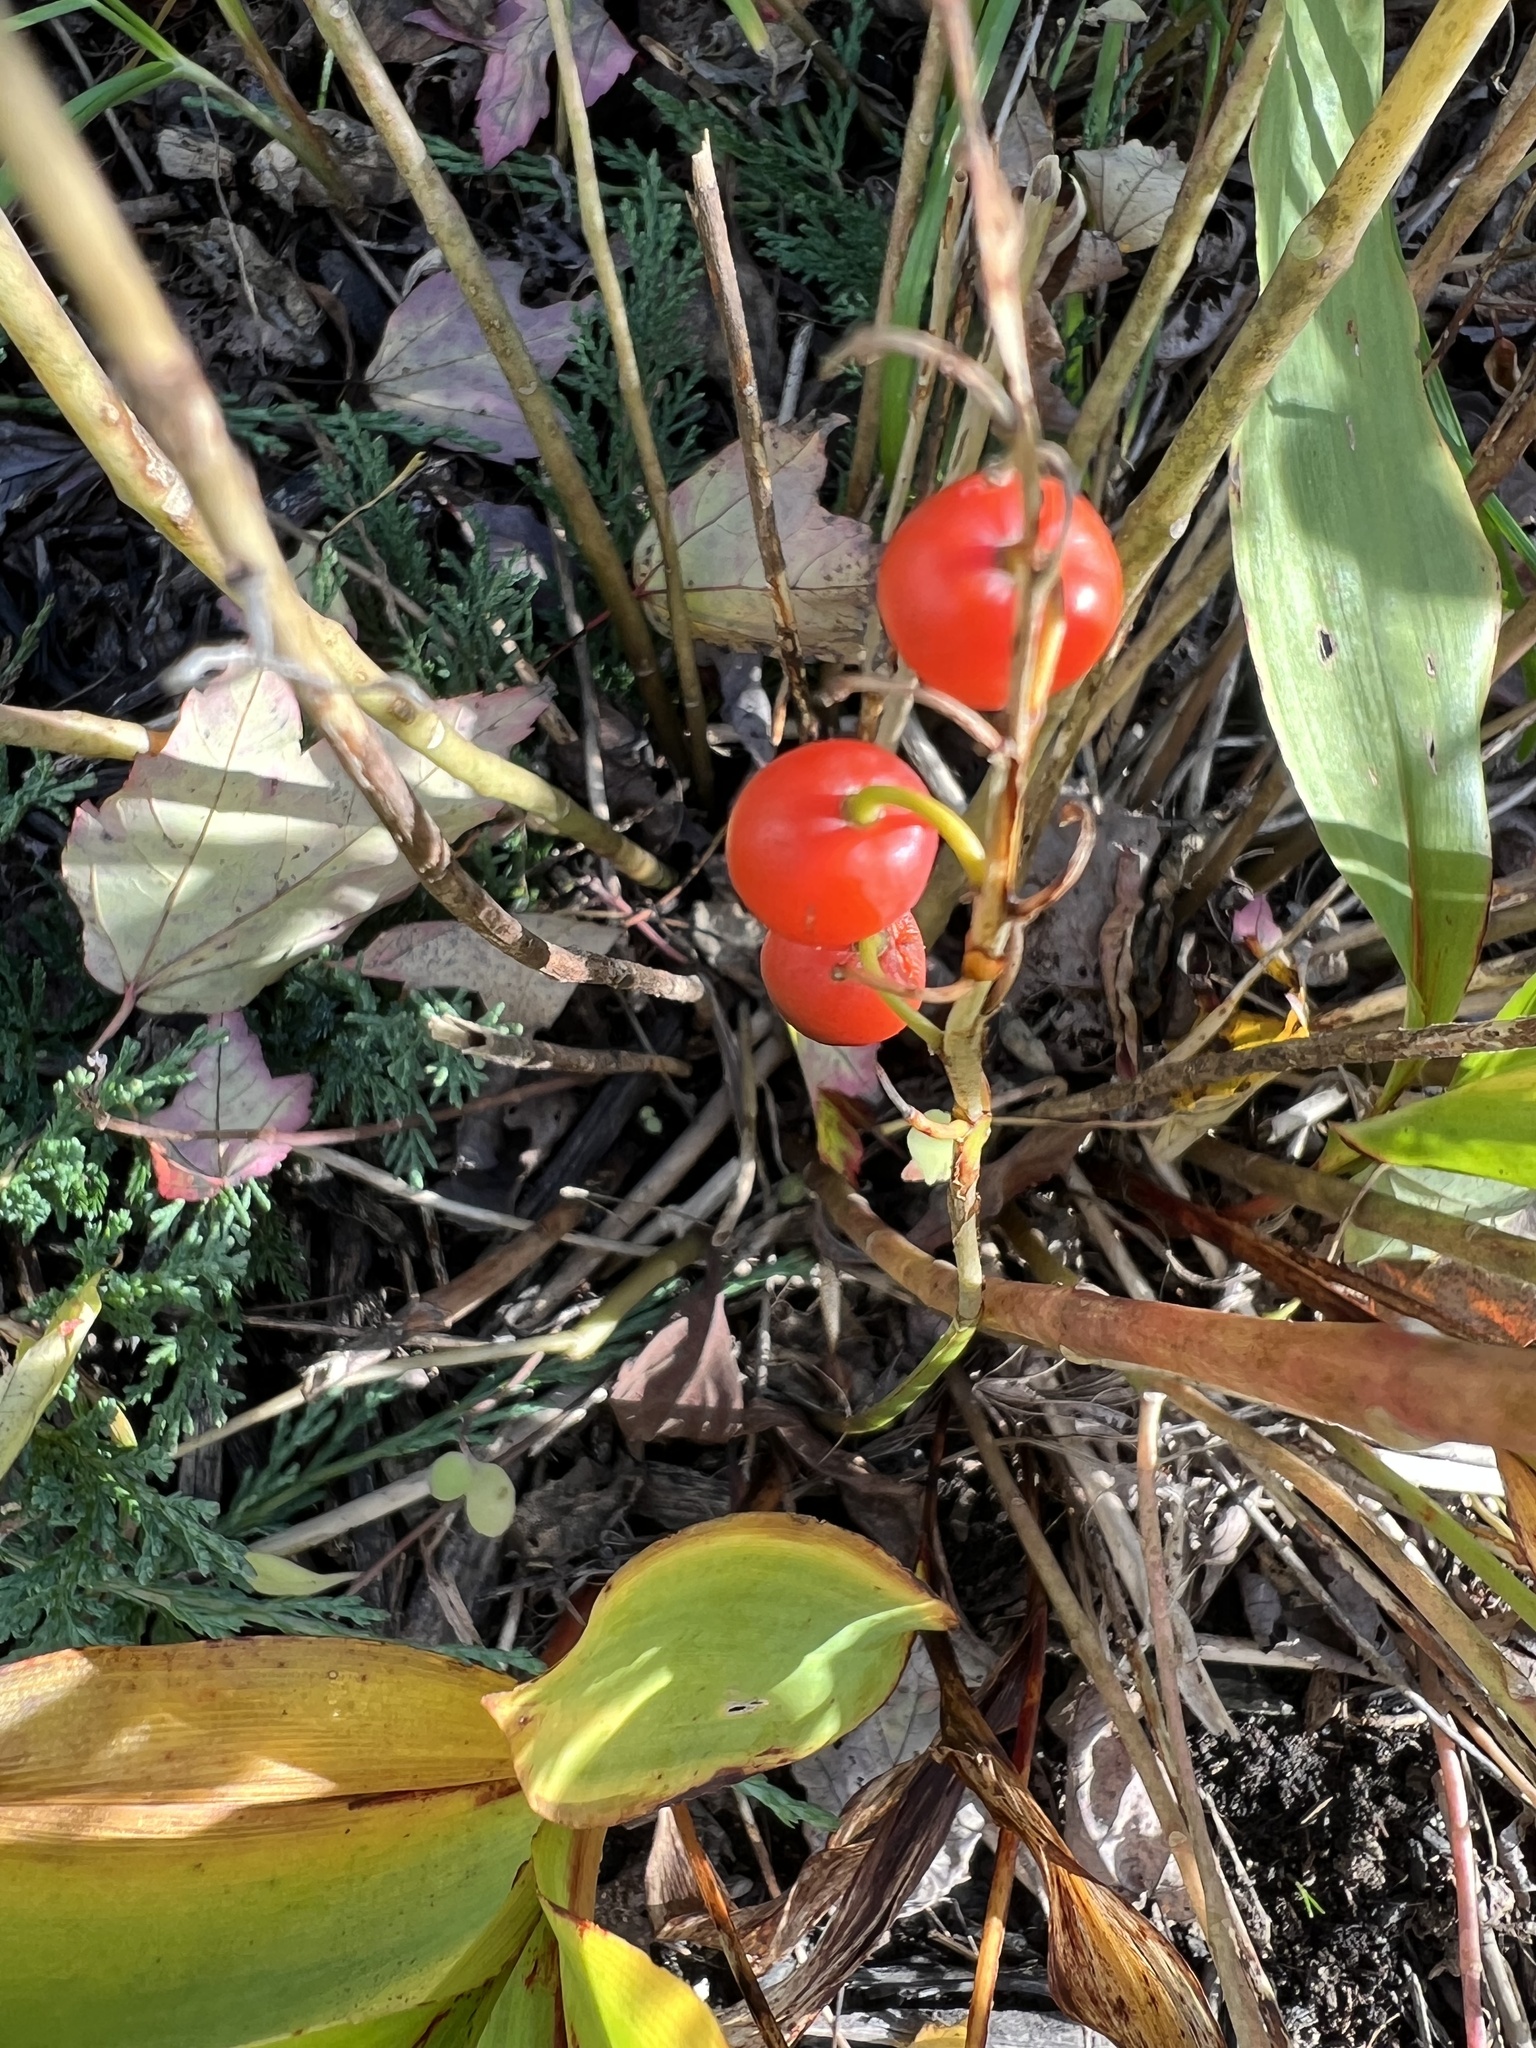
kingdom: Plantae
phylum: Tracheophyta
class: Liliopsida
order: Asparagales
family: Asparagaceae
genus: Convallaria
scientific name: Convallaria majalis
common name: Lily-of-the-valley
